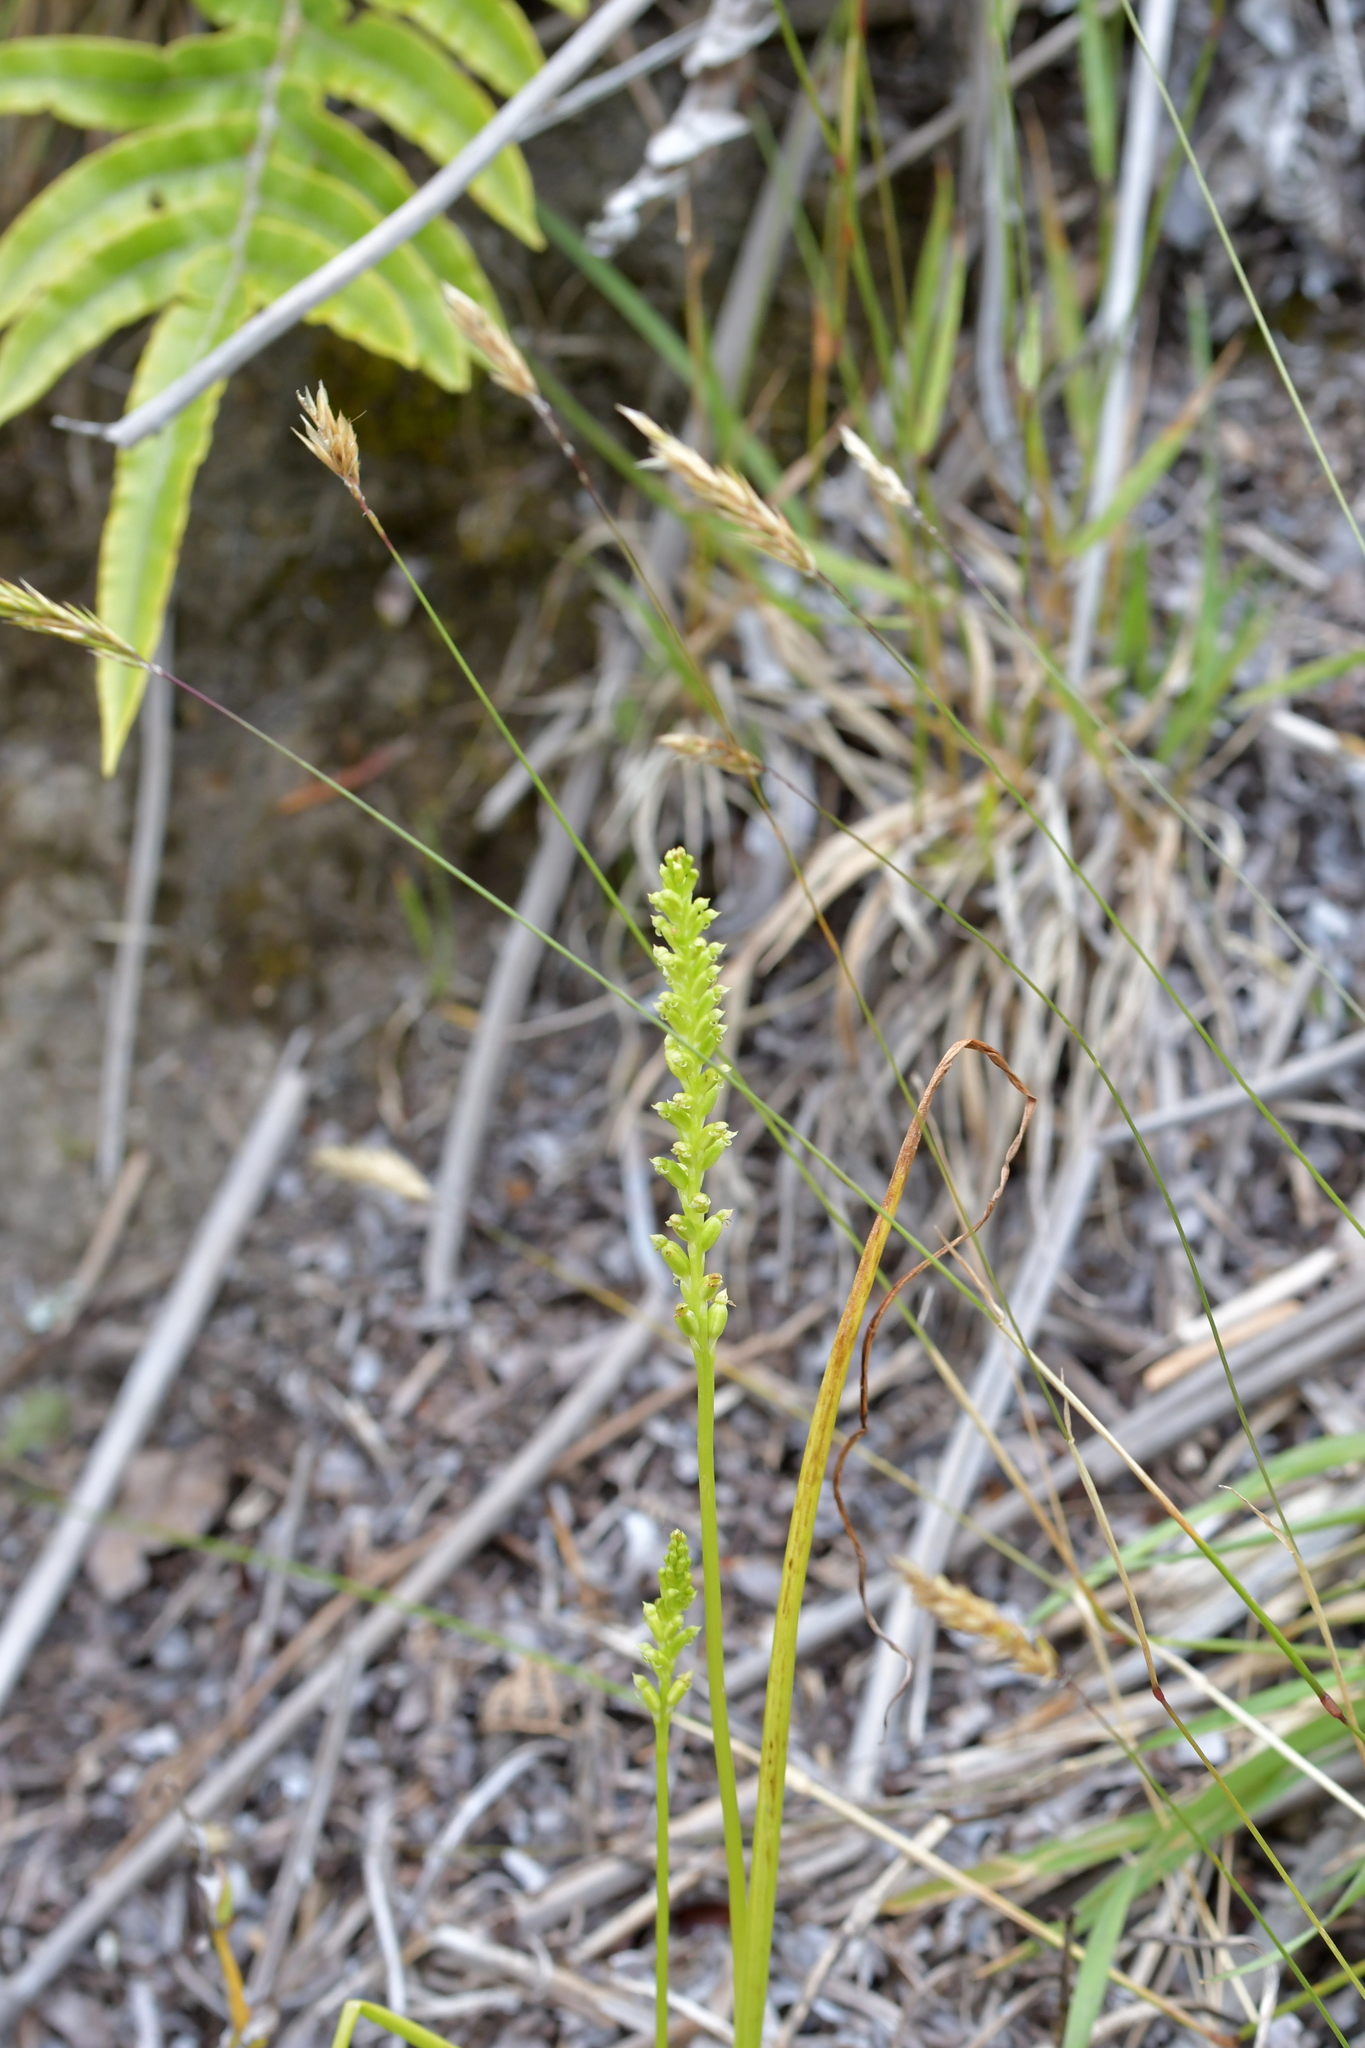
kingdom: Plantae
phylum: Tracheophyta
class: Liliopsida
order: Asparagales
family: Orchidaceae
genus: Microtis
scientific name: Microtis unifolia
